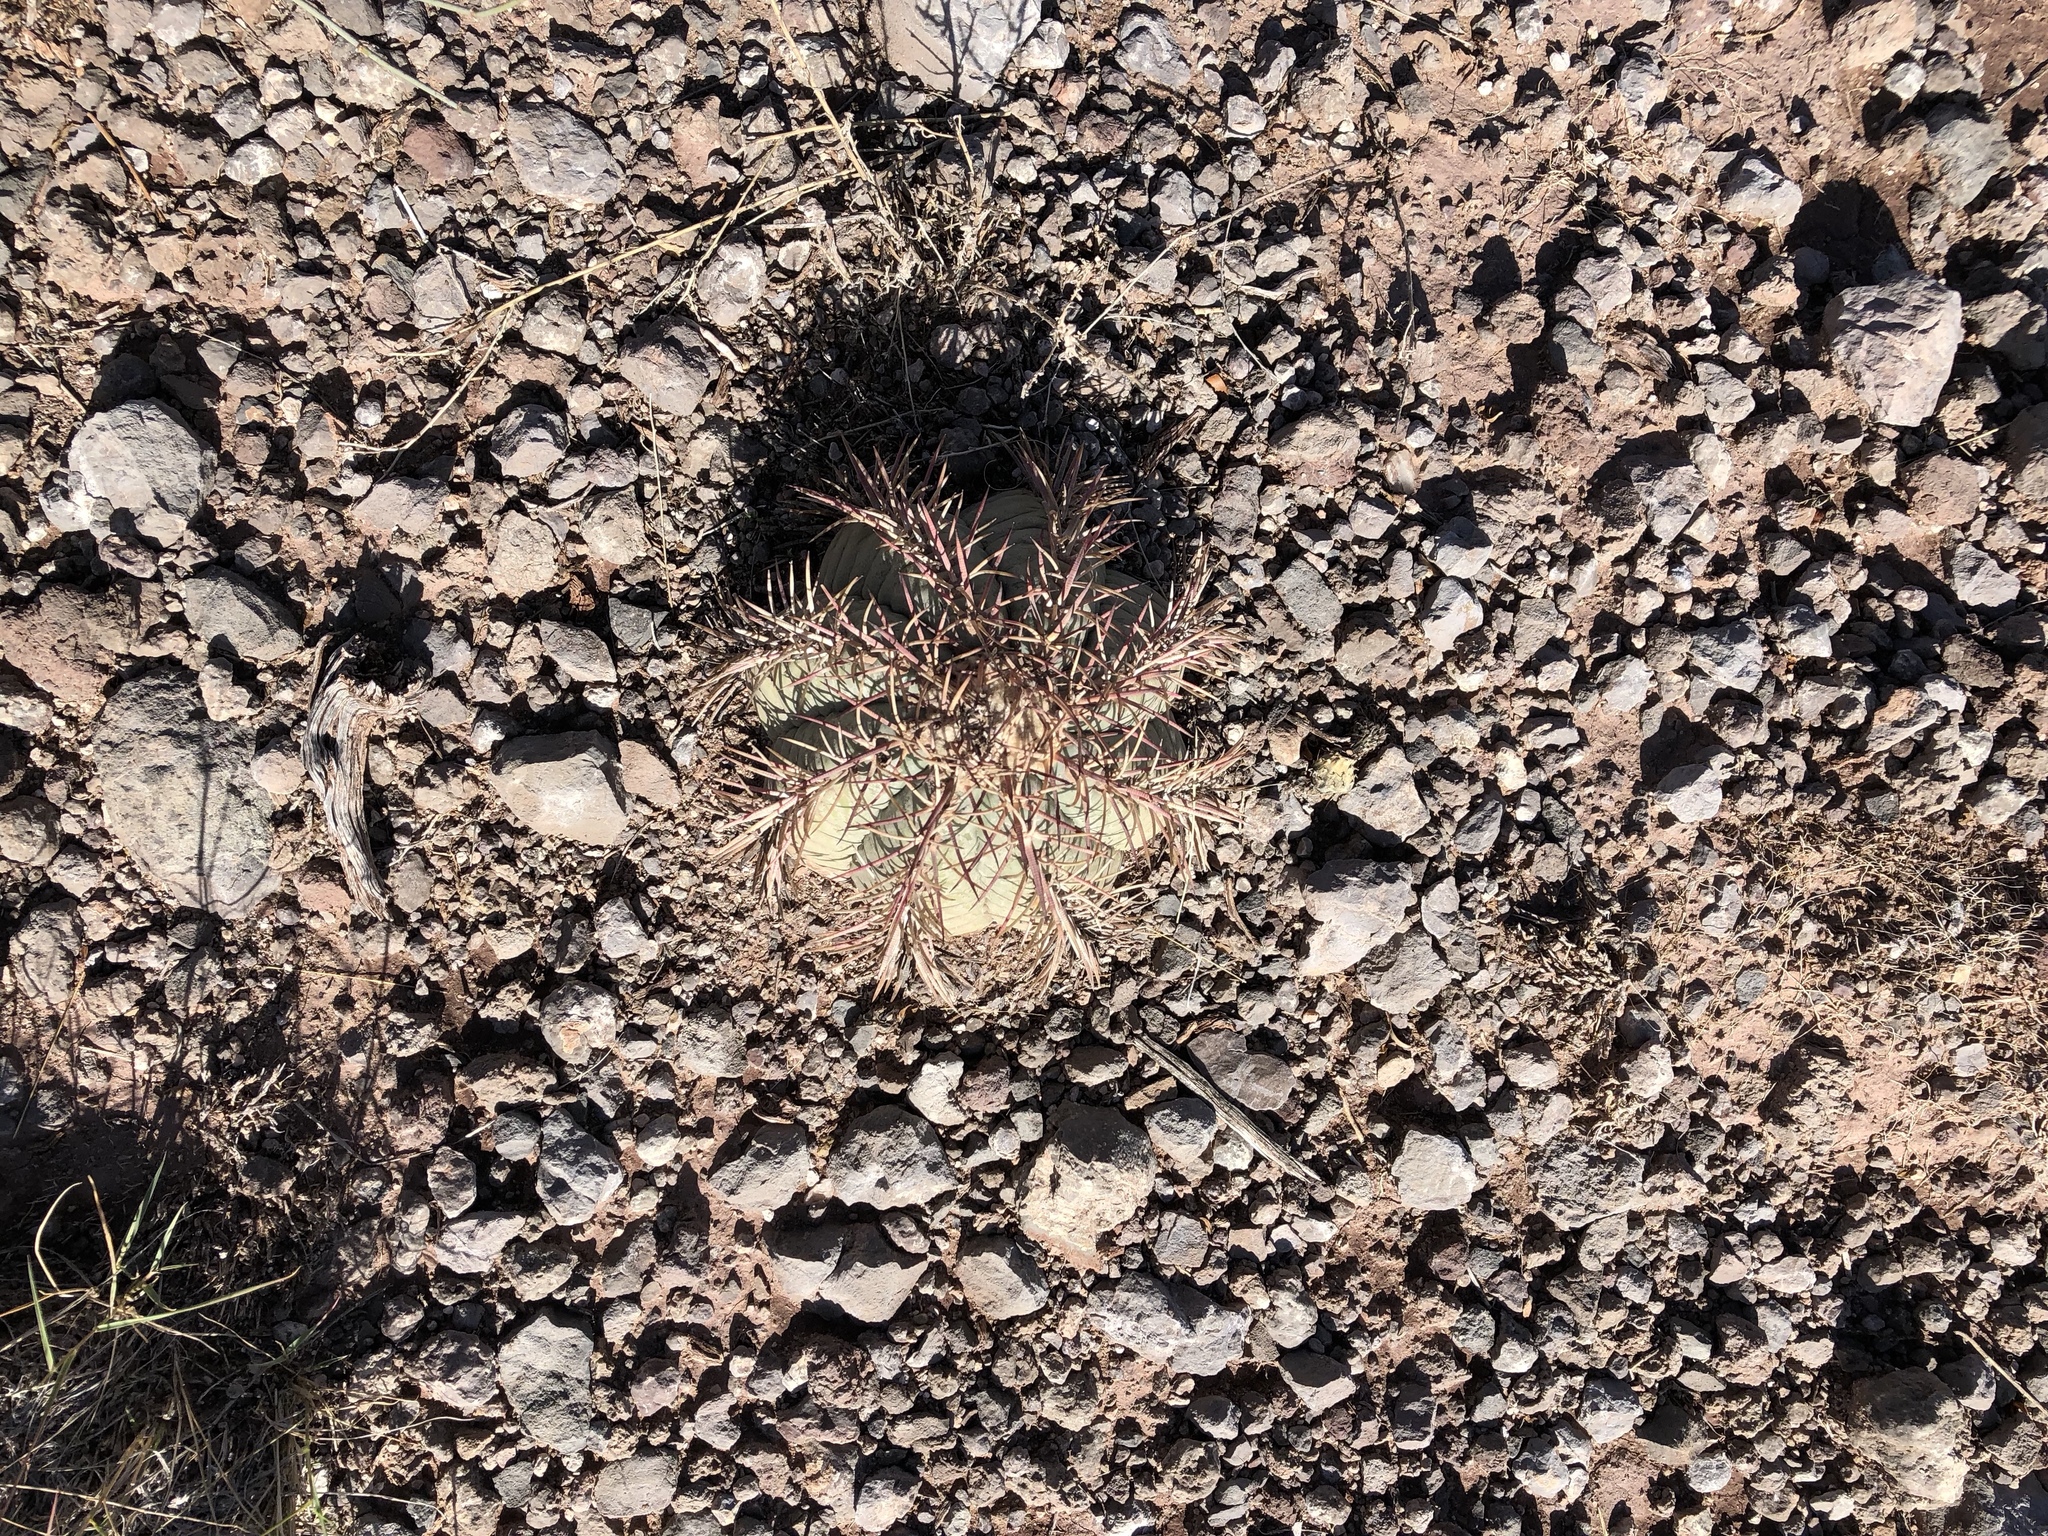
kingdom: Plantae
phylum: Tracheophyta
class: Magnoliopsida
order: Caryophyllales
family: Cactaceae
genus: Echinocactus
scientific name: Echinocactus horizonthalonius
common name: Devilshead
